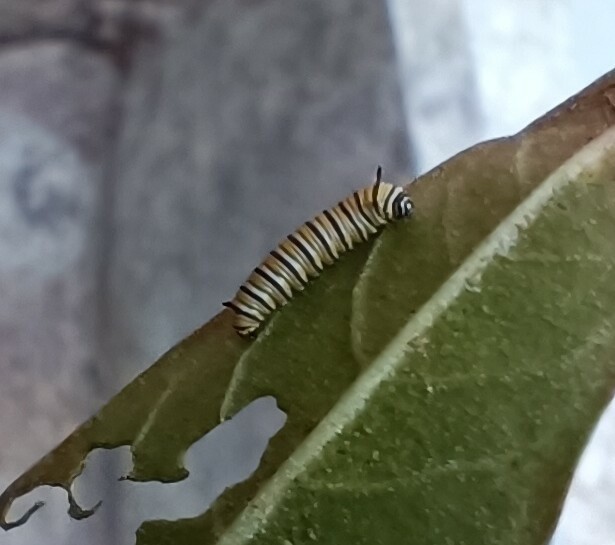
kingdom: Animalia
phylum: Arthropoda
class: Insecta
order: Lepidoptera
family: Nymphalidae
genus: Danaus
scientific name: Danaus plexippus
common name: Monarch
